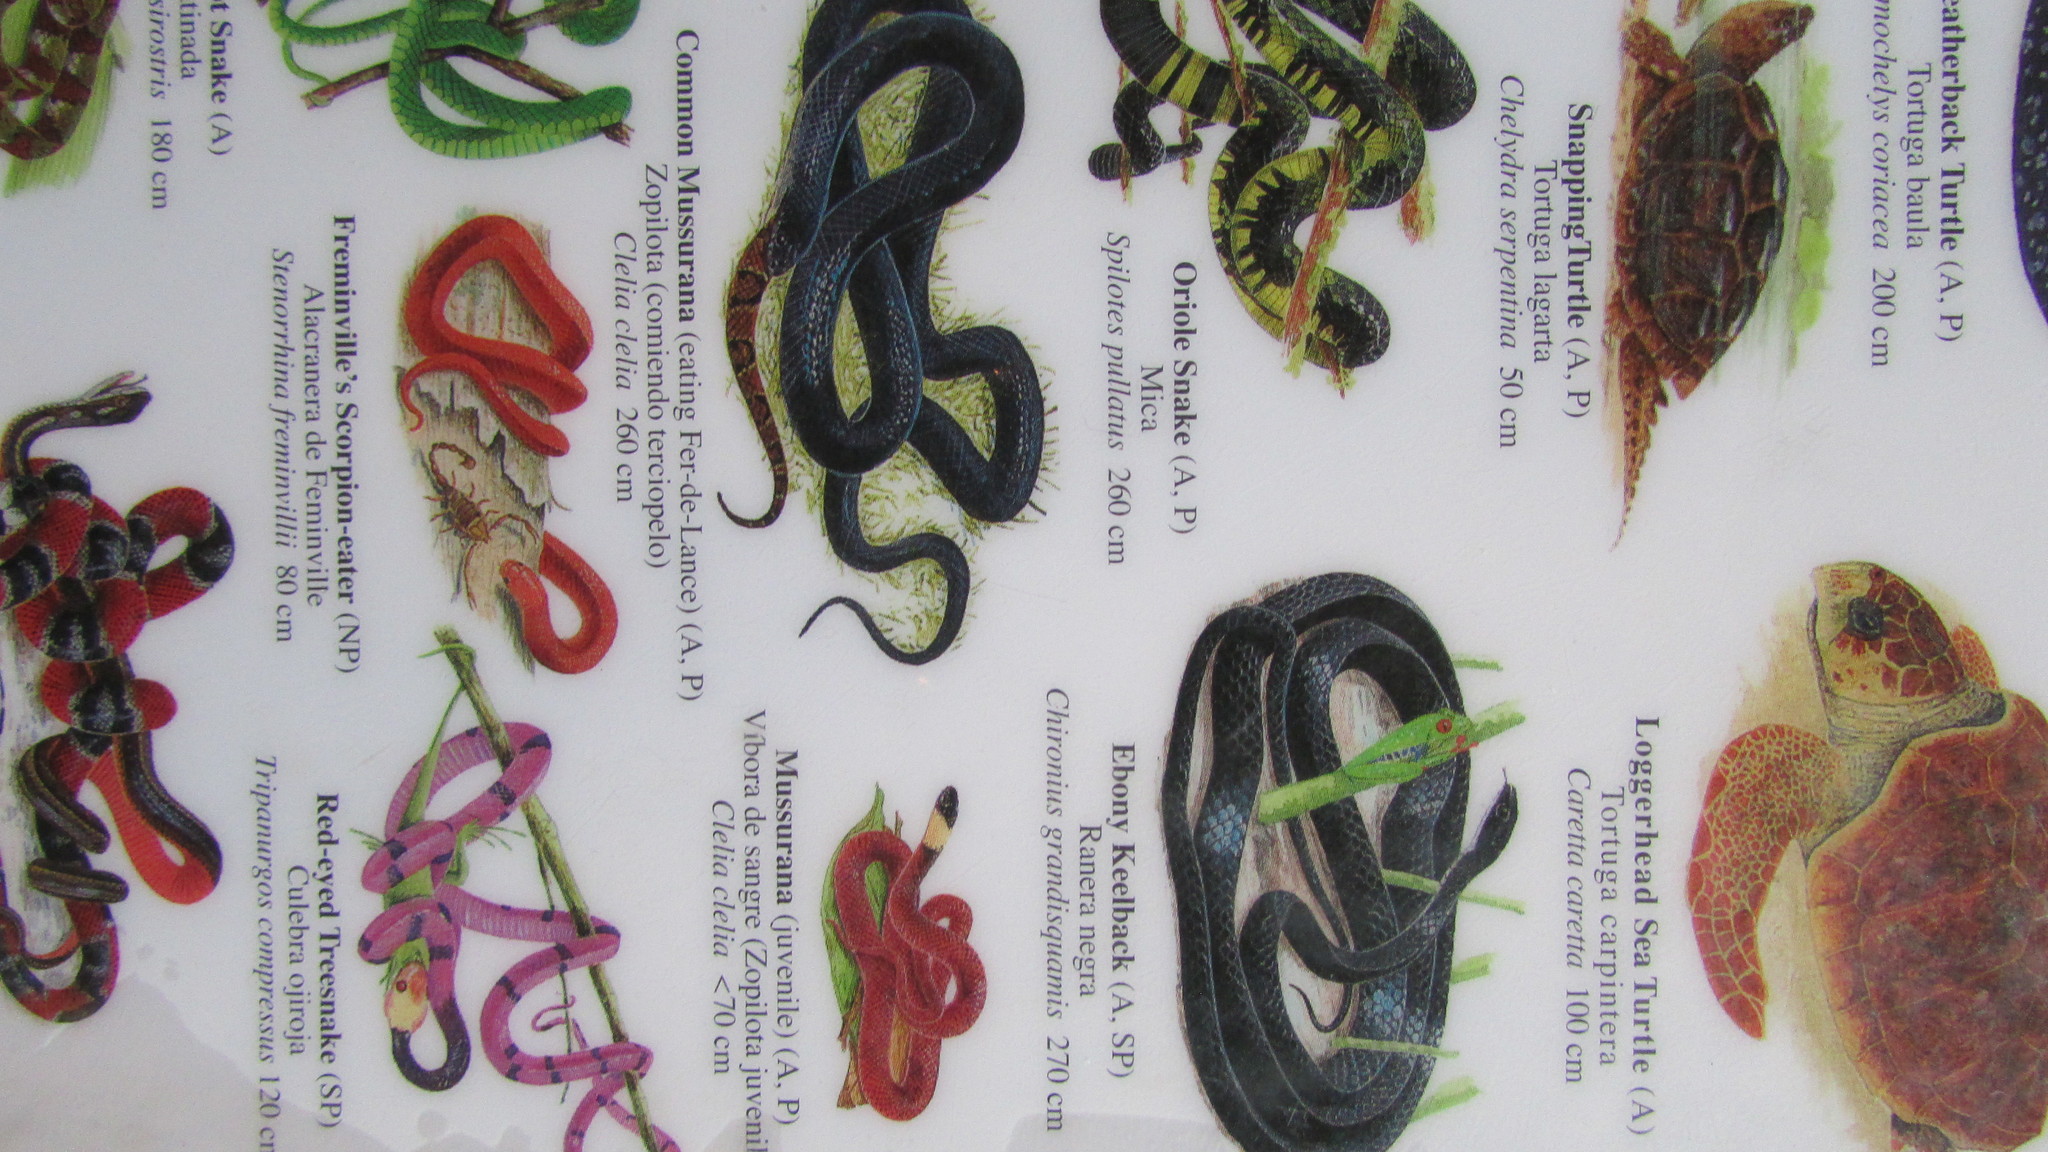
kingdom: Animalia
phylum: Chordata
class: Squamata
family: Colubridae
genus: Chironius
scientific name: Chironius grandisquamis
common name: Ecuador sipo
